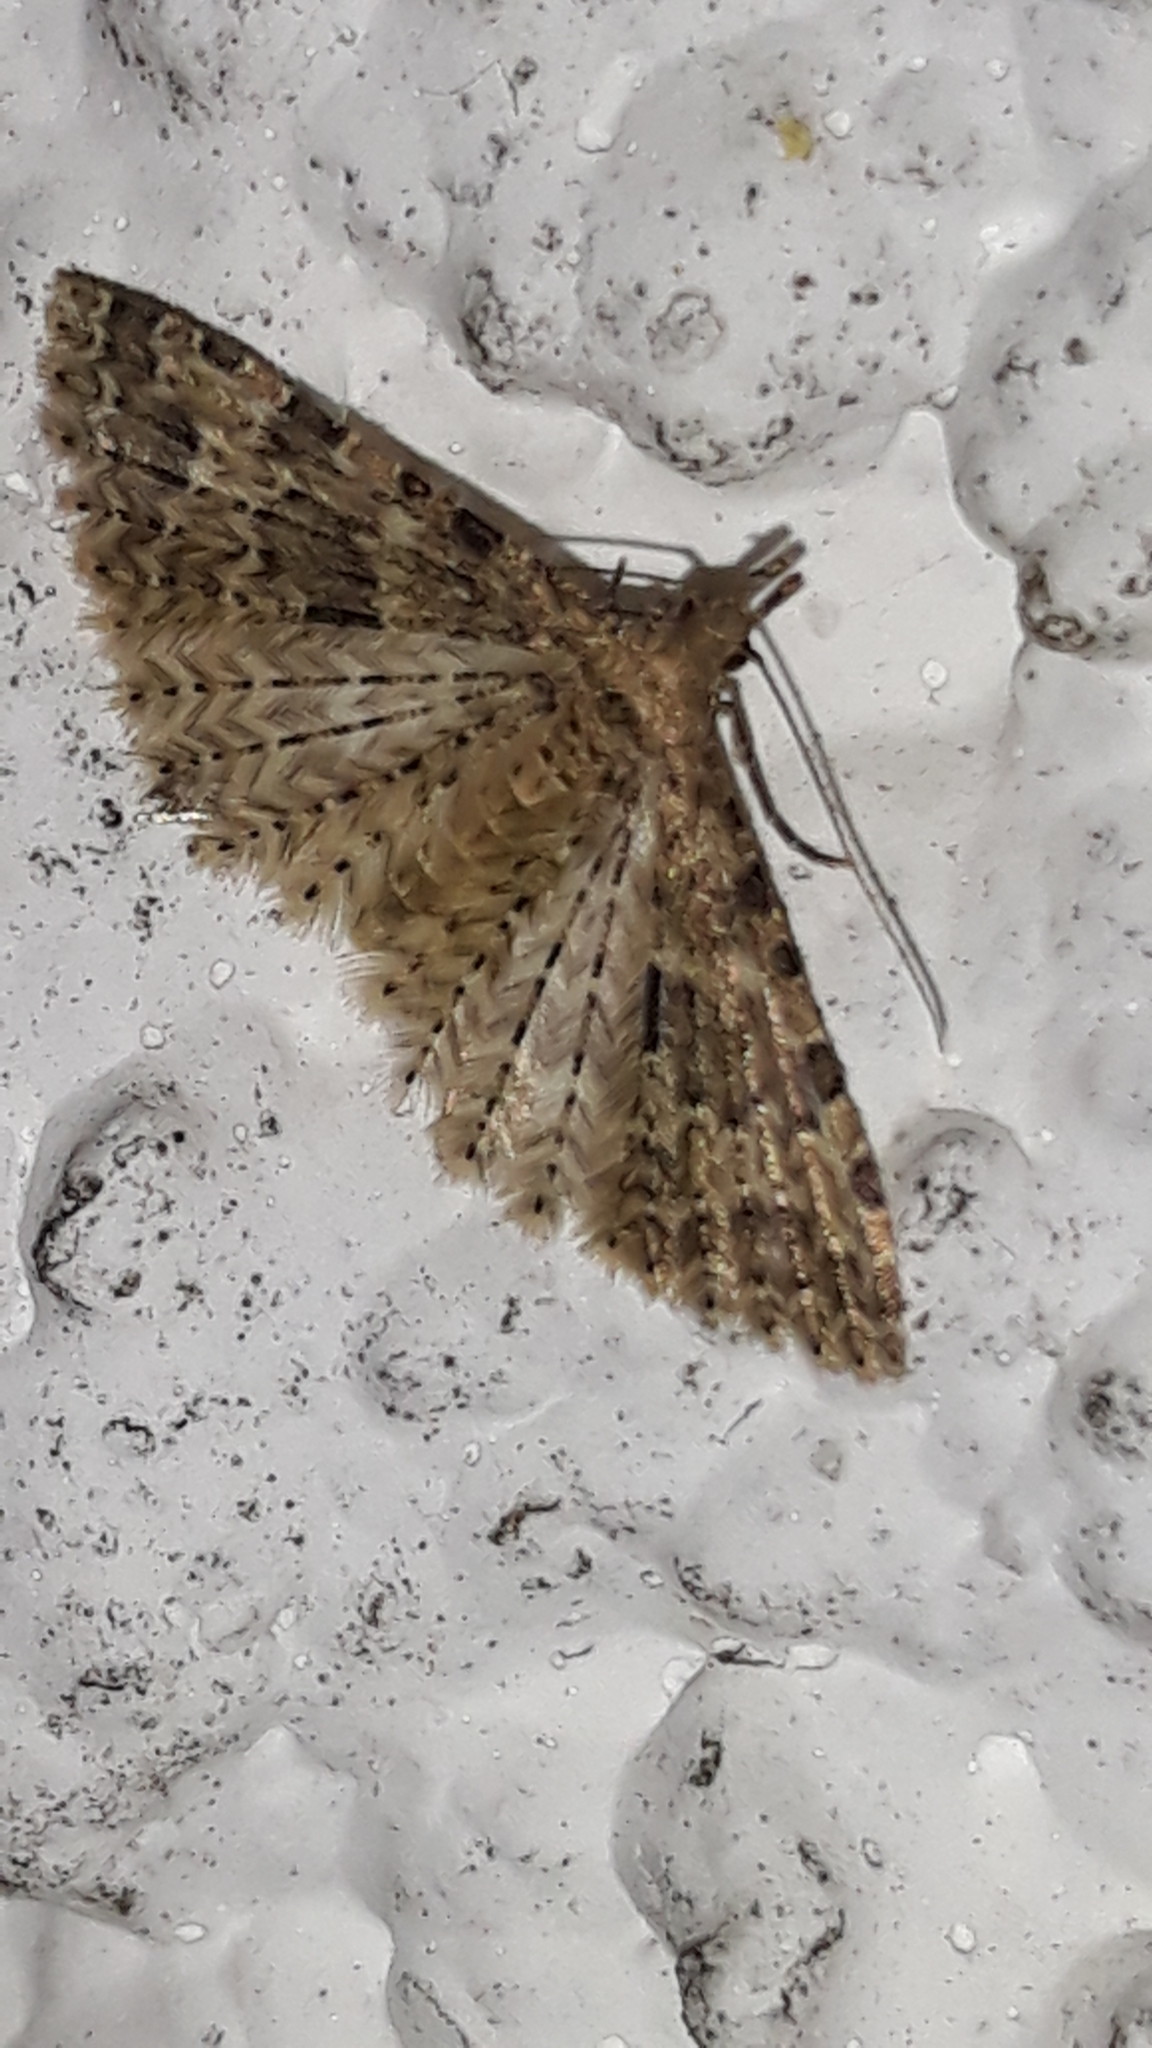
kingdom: Animalia
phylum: Arthropoda
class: Insecta
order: Lepidoptera
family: Alucitidae
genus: Alucita
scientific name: Alucita
